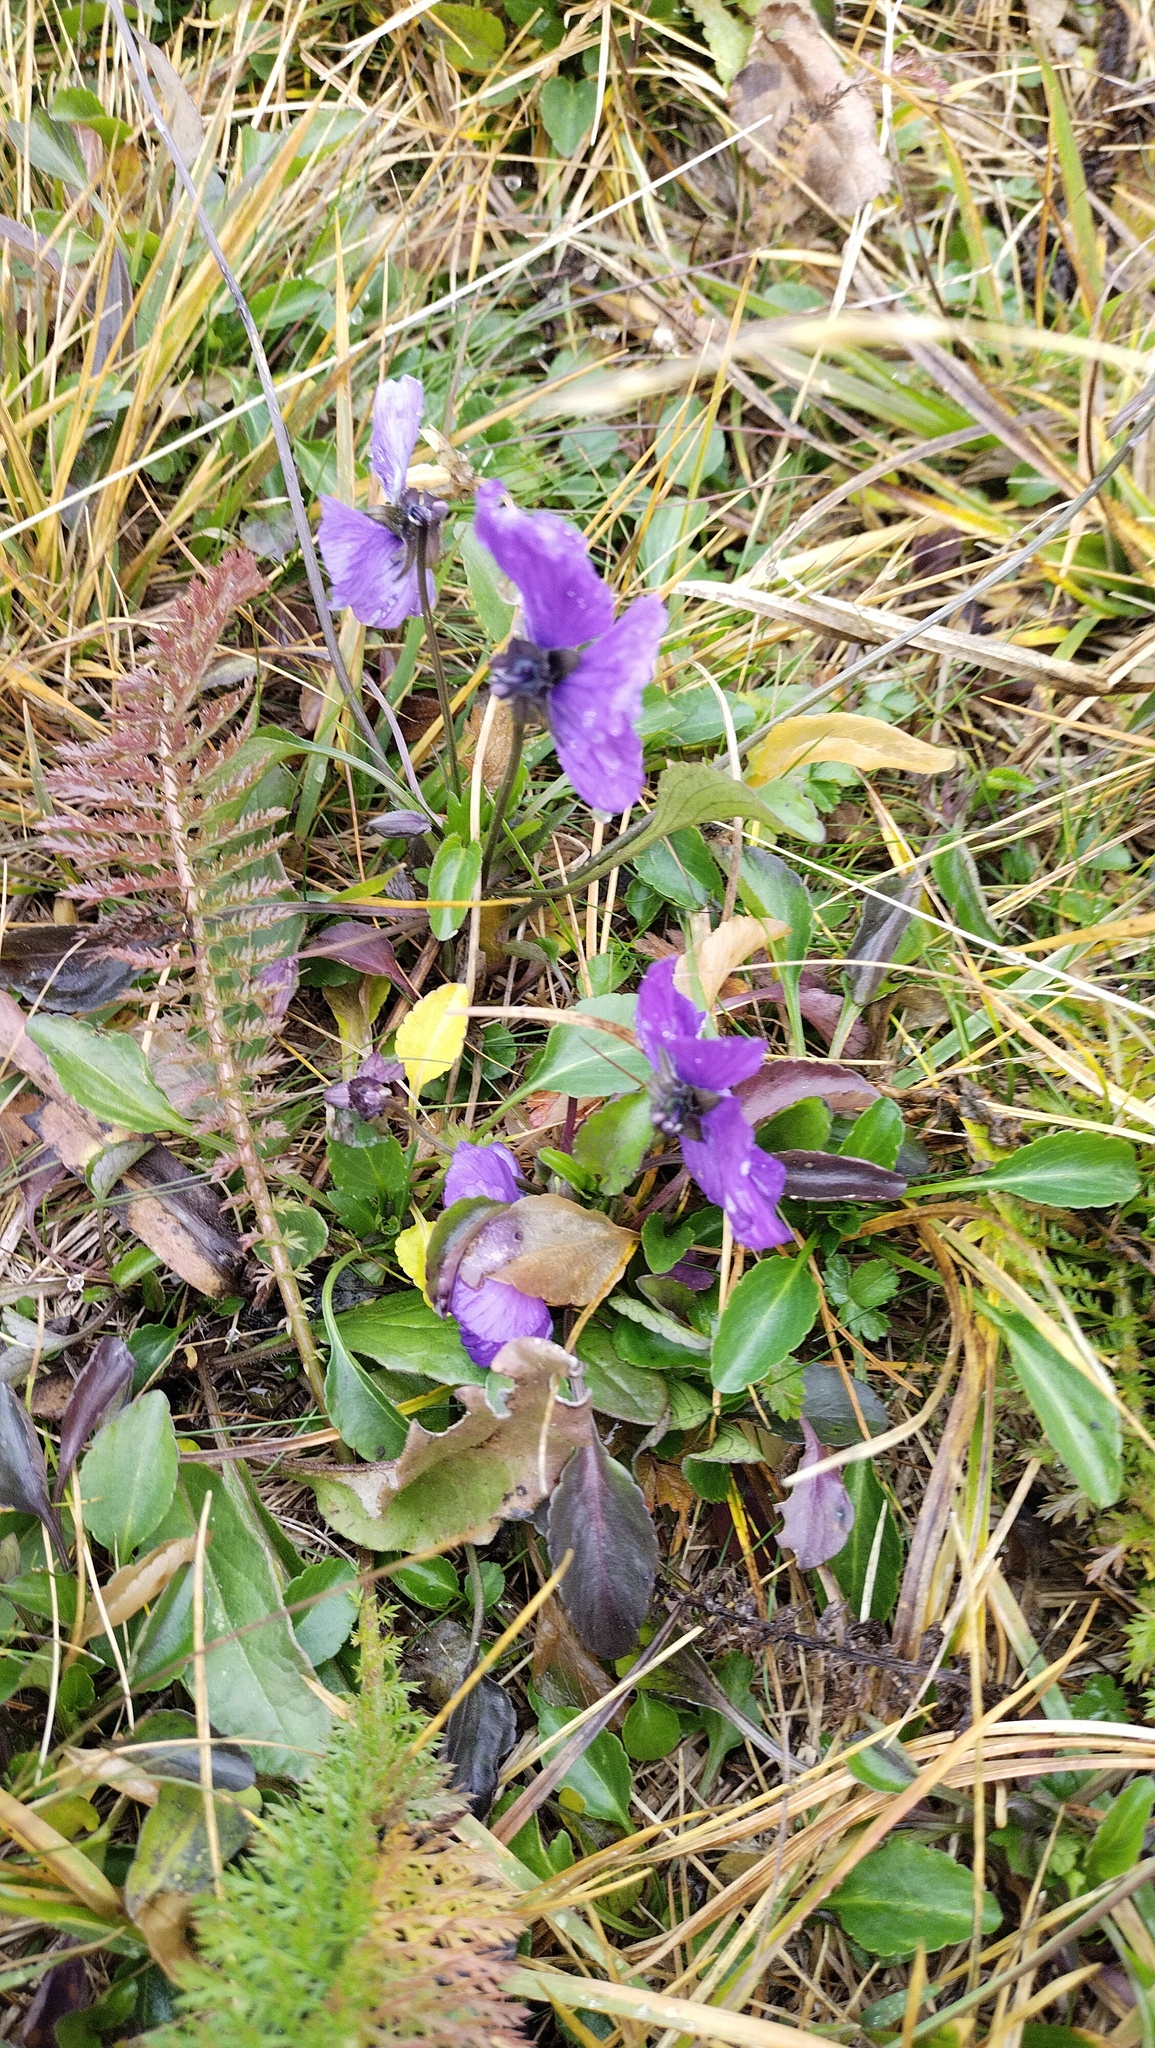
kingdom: Plantae
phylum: Tracheophyta
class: Magnoliopsida
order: Malpighiales
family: Violaceae
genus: Viola
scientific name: Viola altaica
